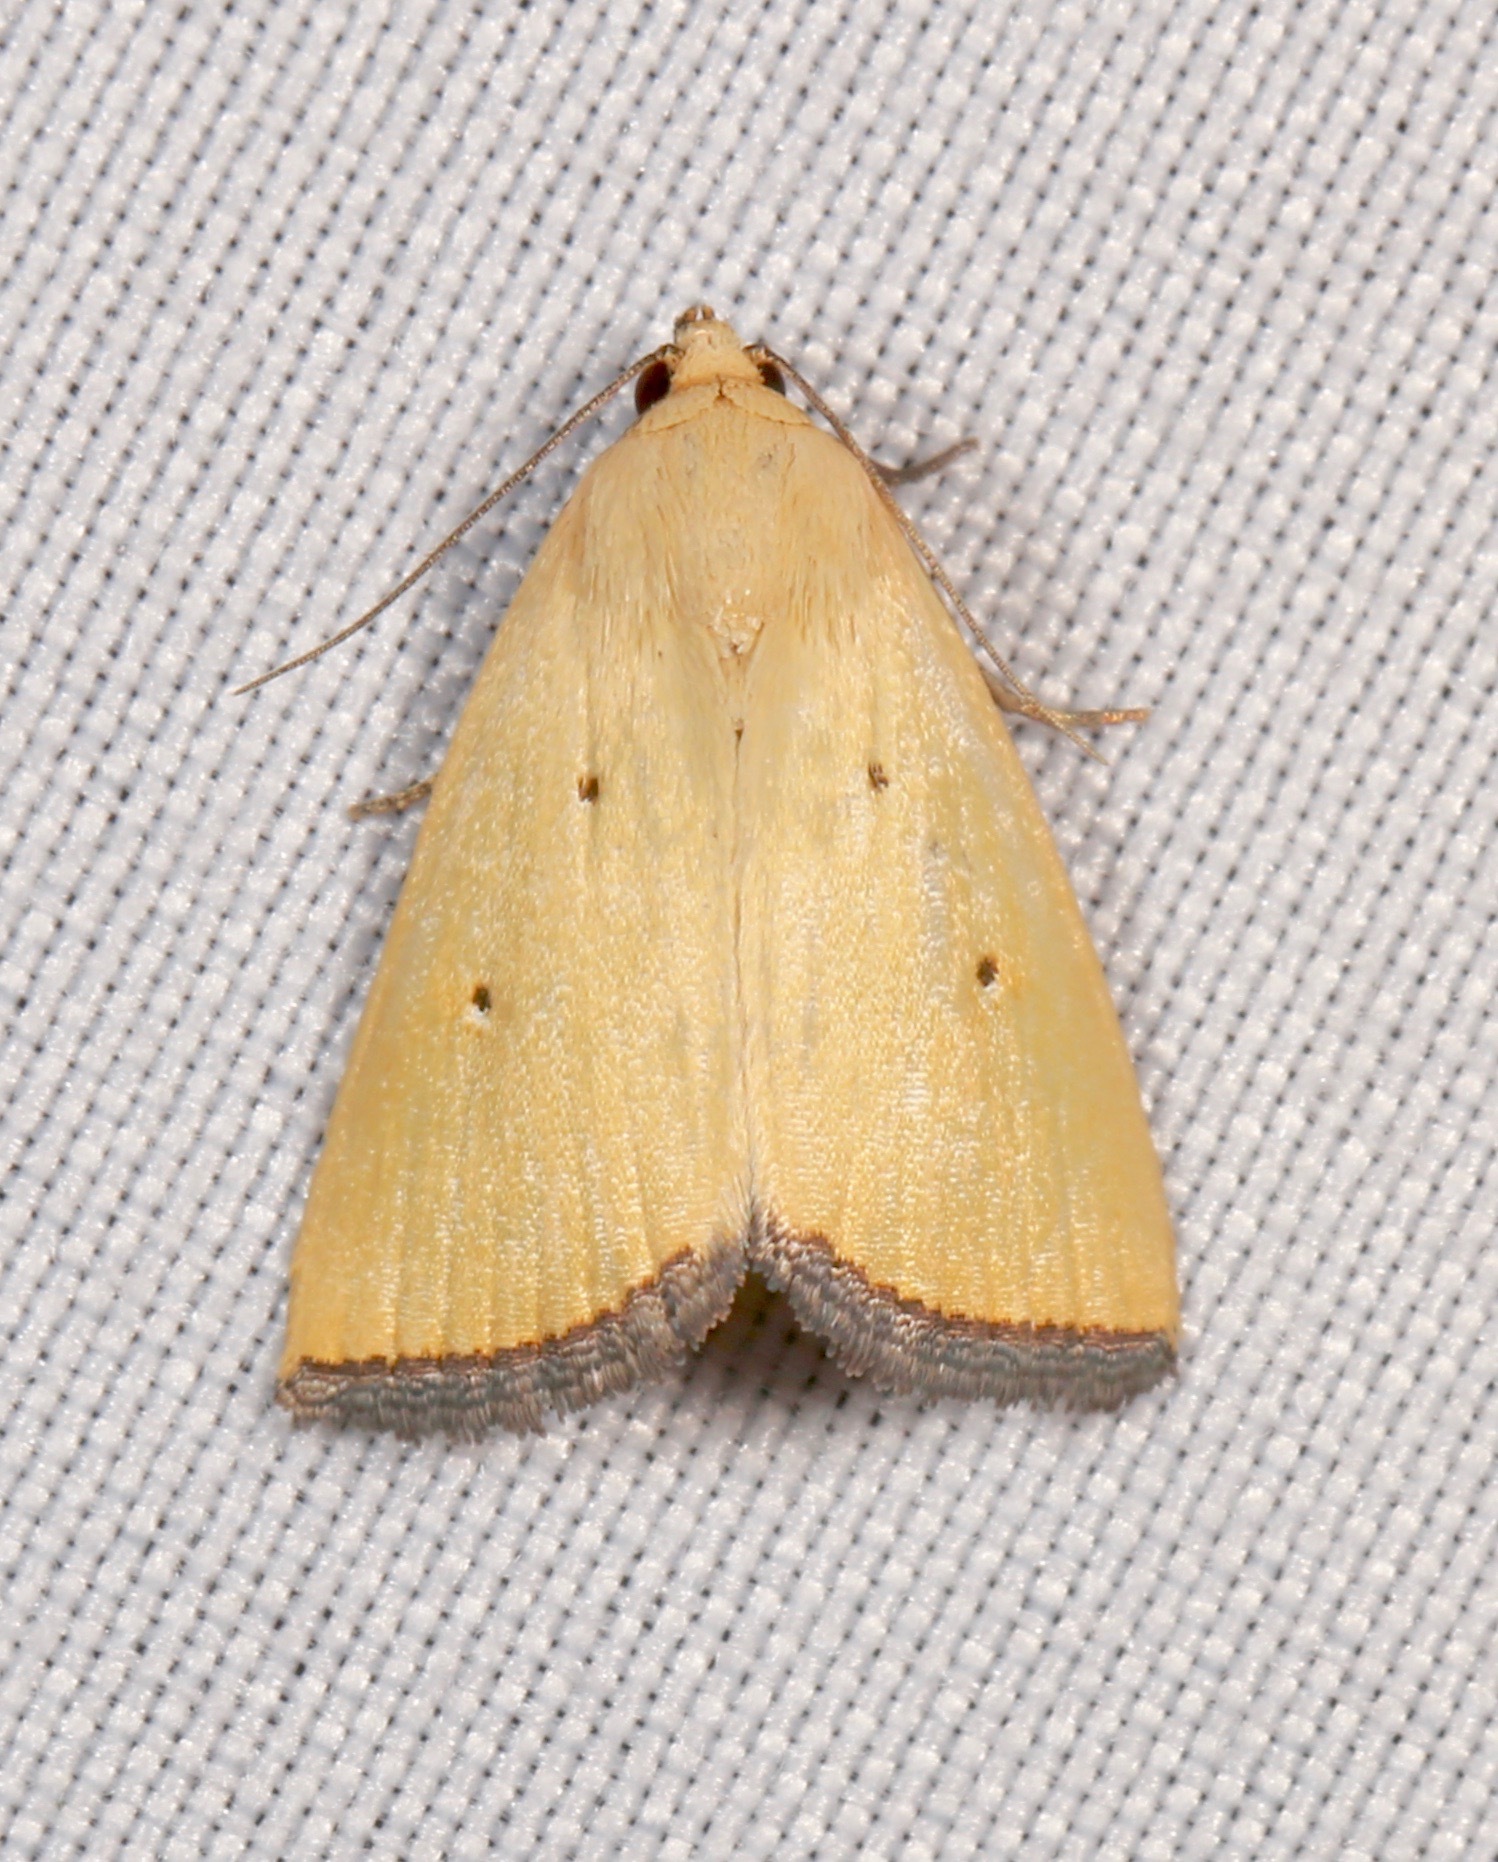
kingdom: Animalia
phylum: Arthropoda
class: Insecta
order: Lepidoptera
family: Noctuidae
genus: Marimatha
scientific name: Marimatha nigrofimbria
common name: Black-bordered lemon moth
